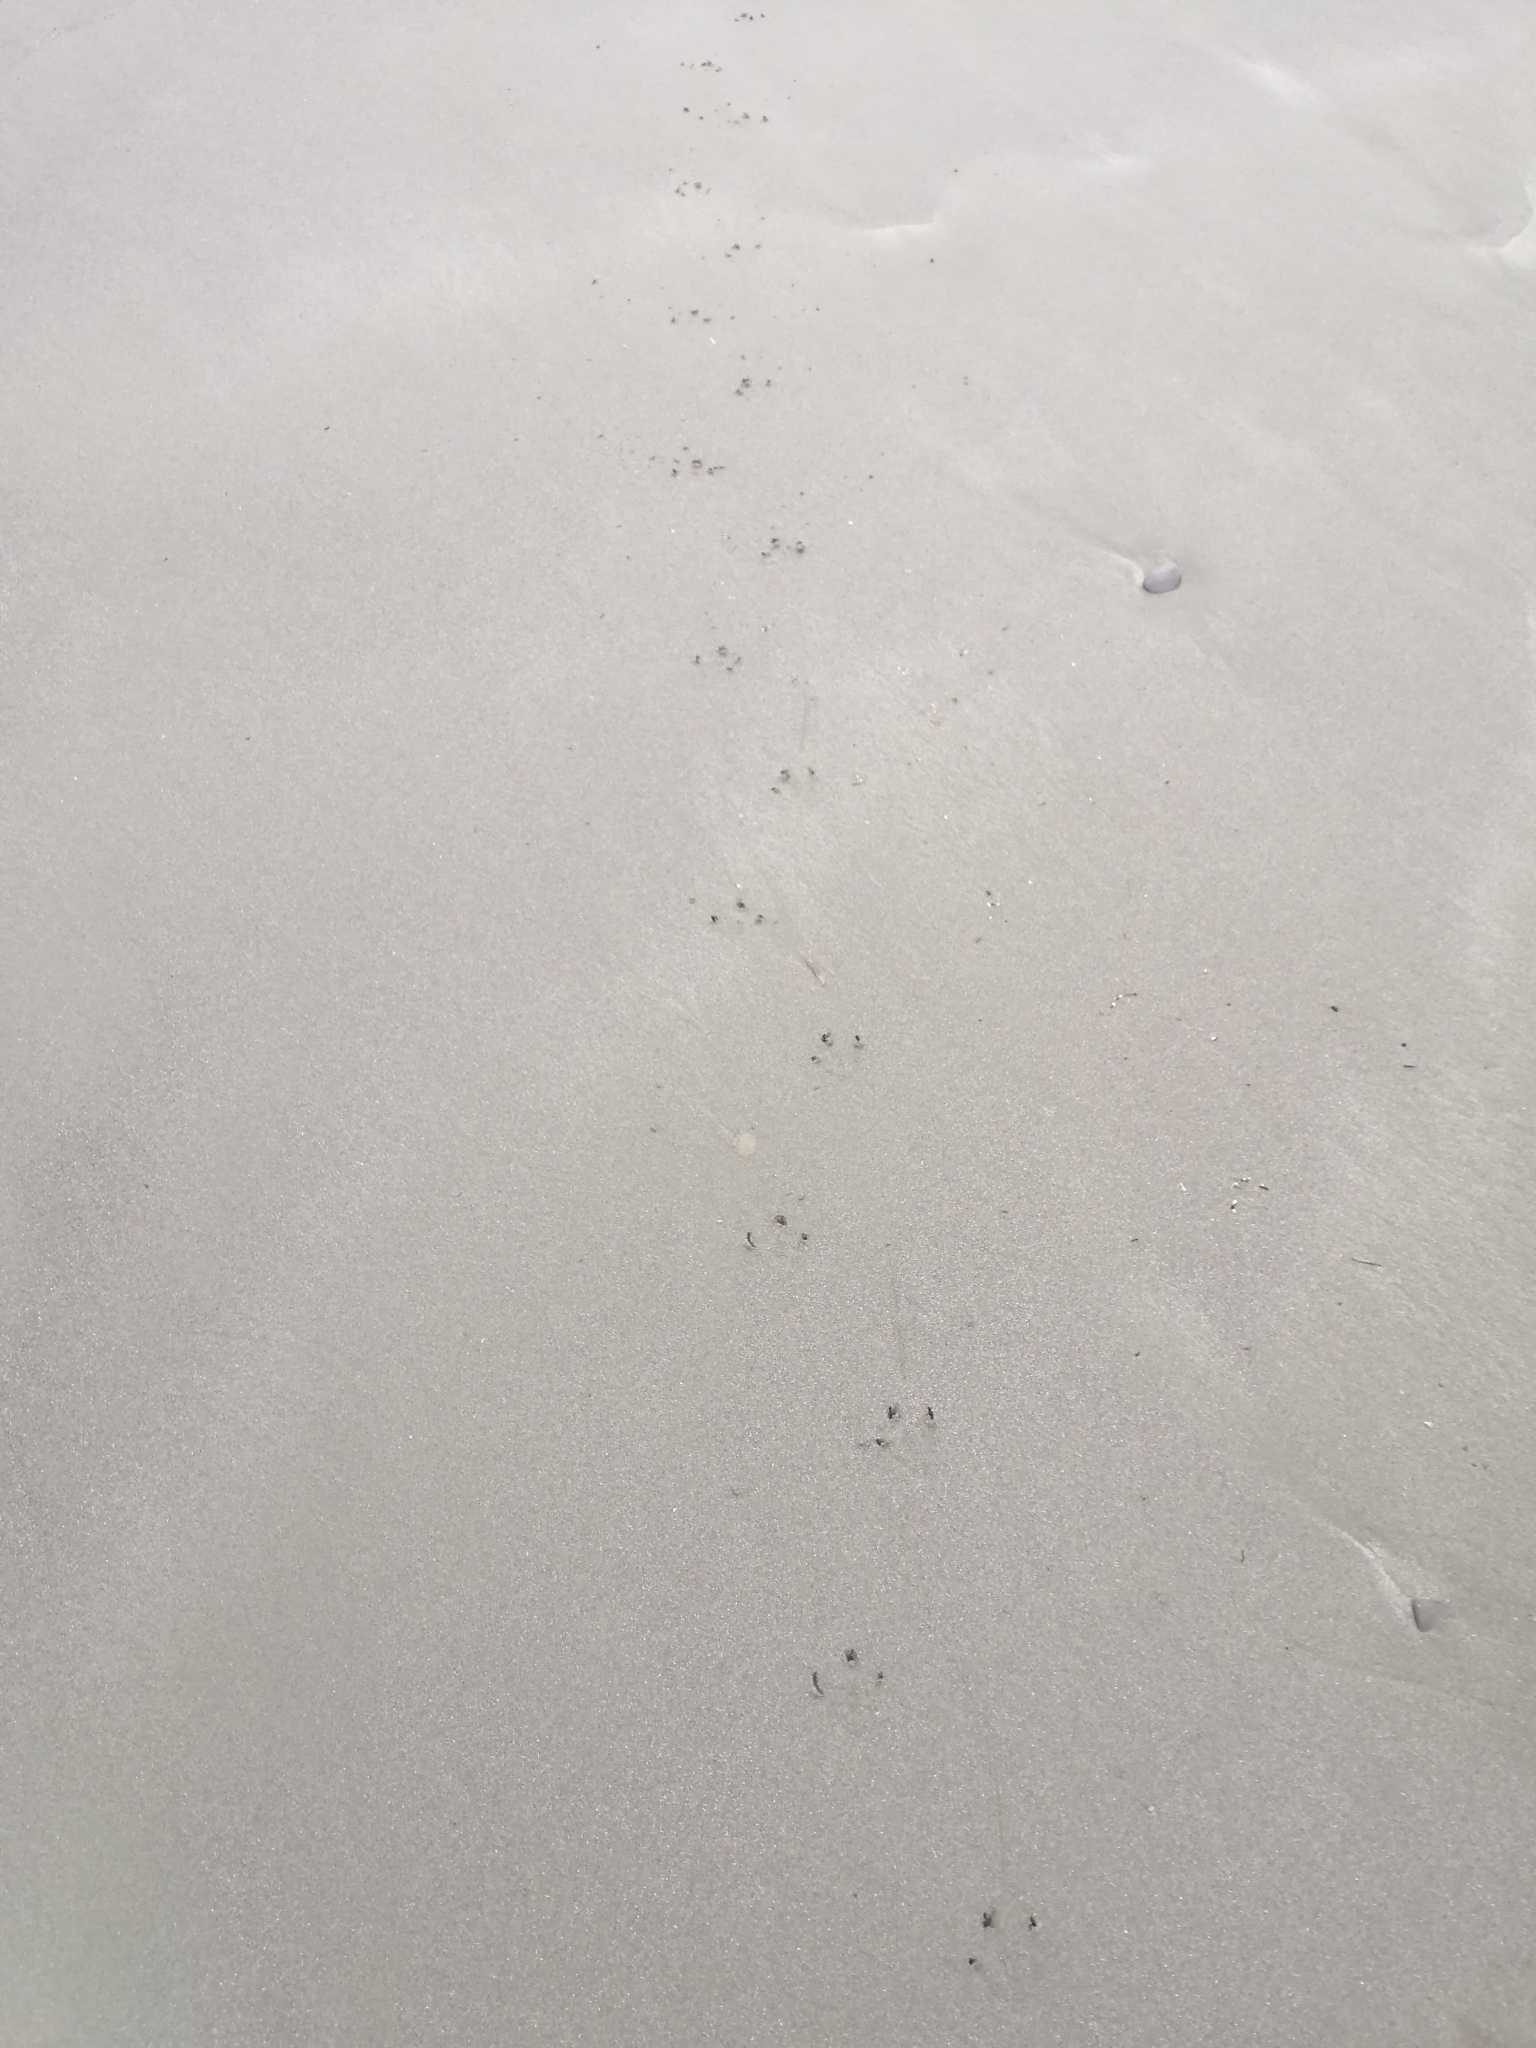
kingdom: Animalia
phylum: Chordata
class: Aves
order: Sphenisciformes
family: Spheniscidae
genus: Eudyptula
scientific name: Eudyptula minor
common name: Little penguin
